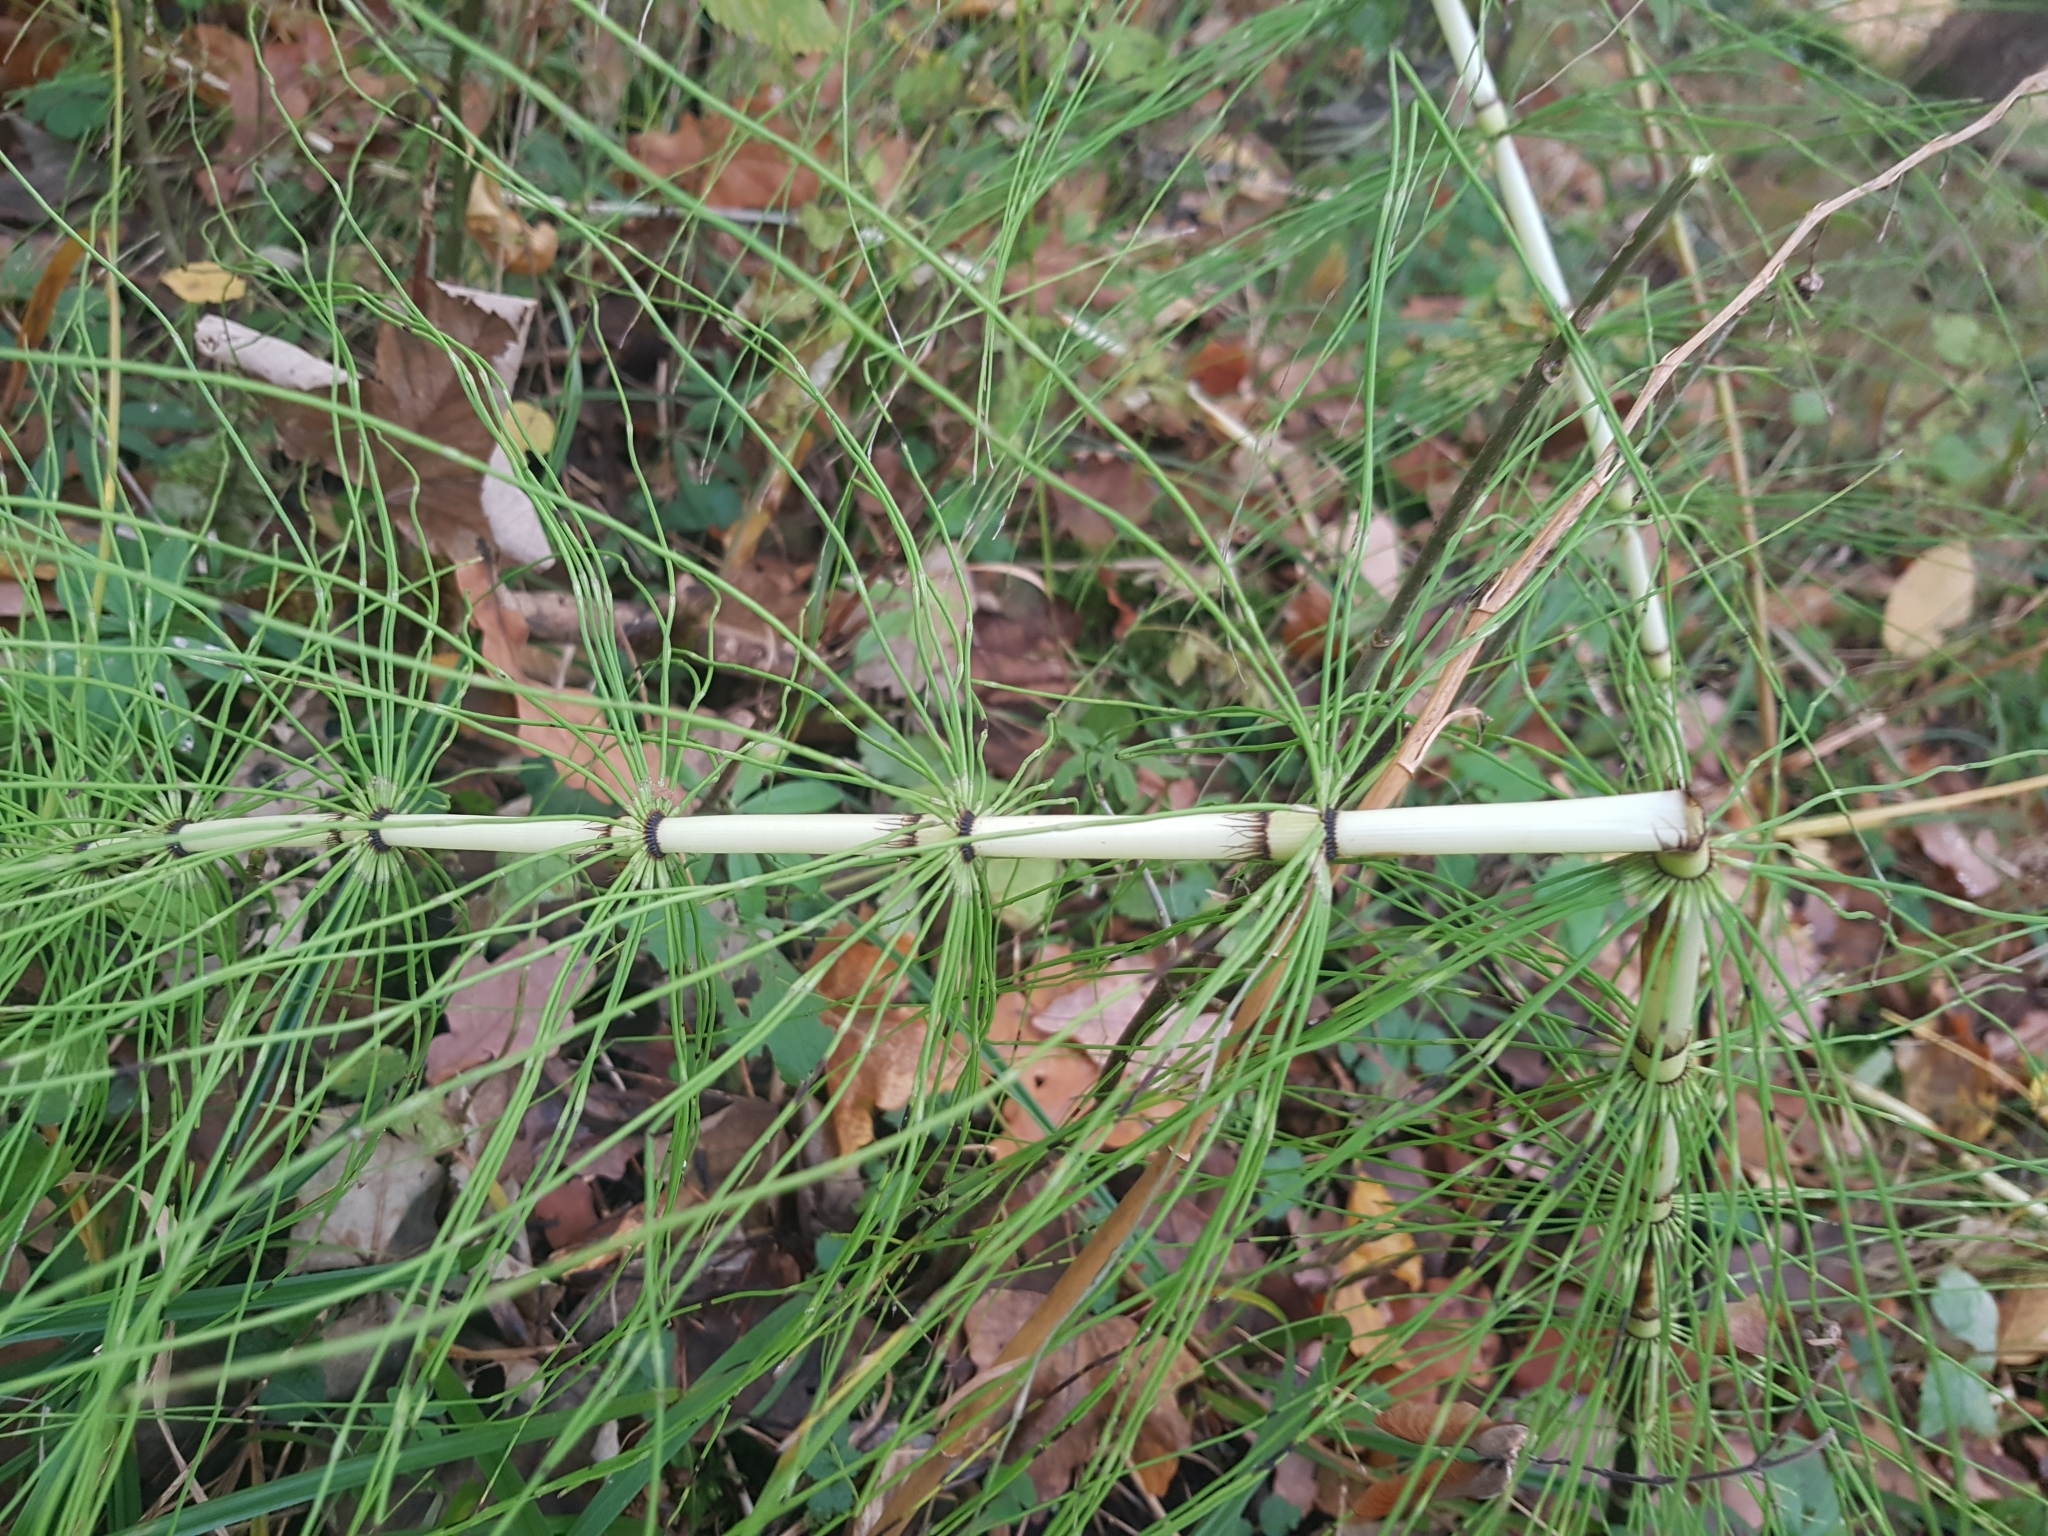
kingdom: Plantae
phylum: Tracheophyta
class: Polypodiopsida
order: Equisetales
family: Equisetaceae
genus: Equisetum
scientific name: Equisetum telmateia
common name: Great horsetail
